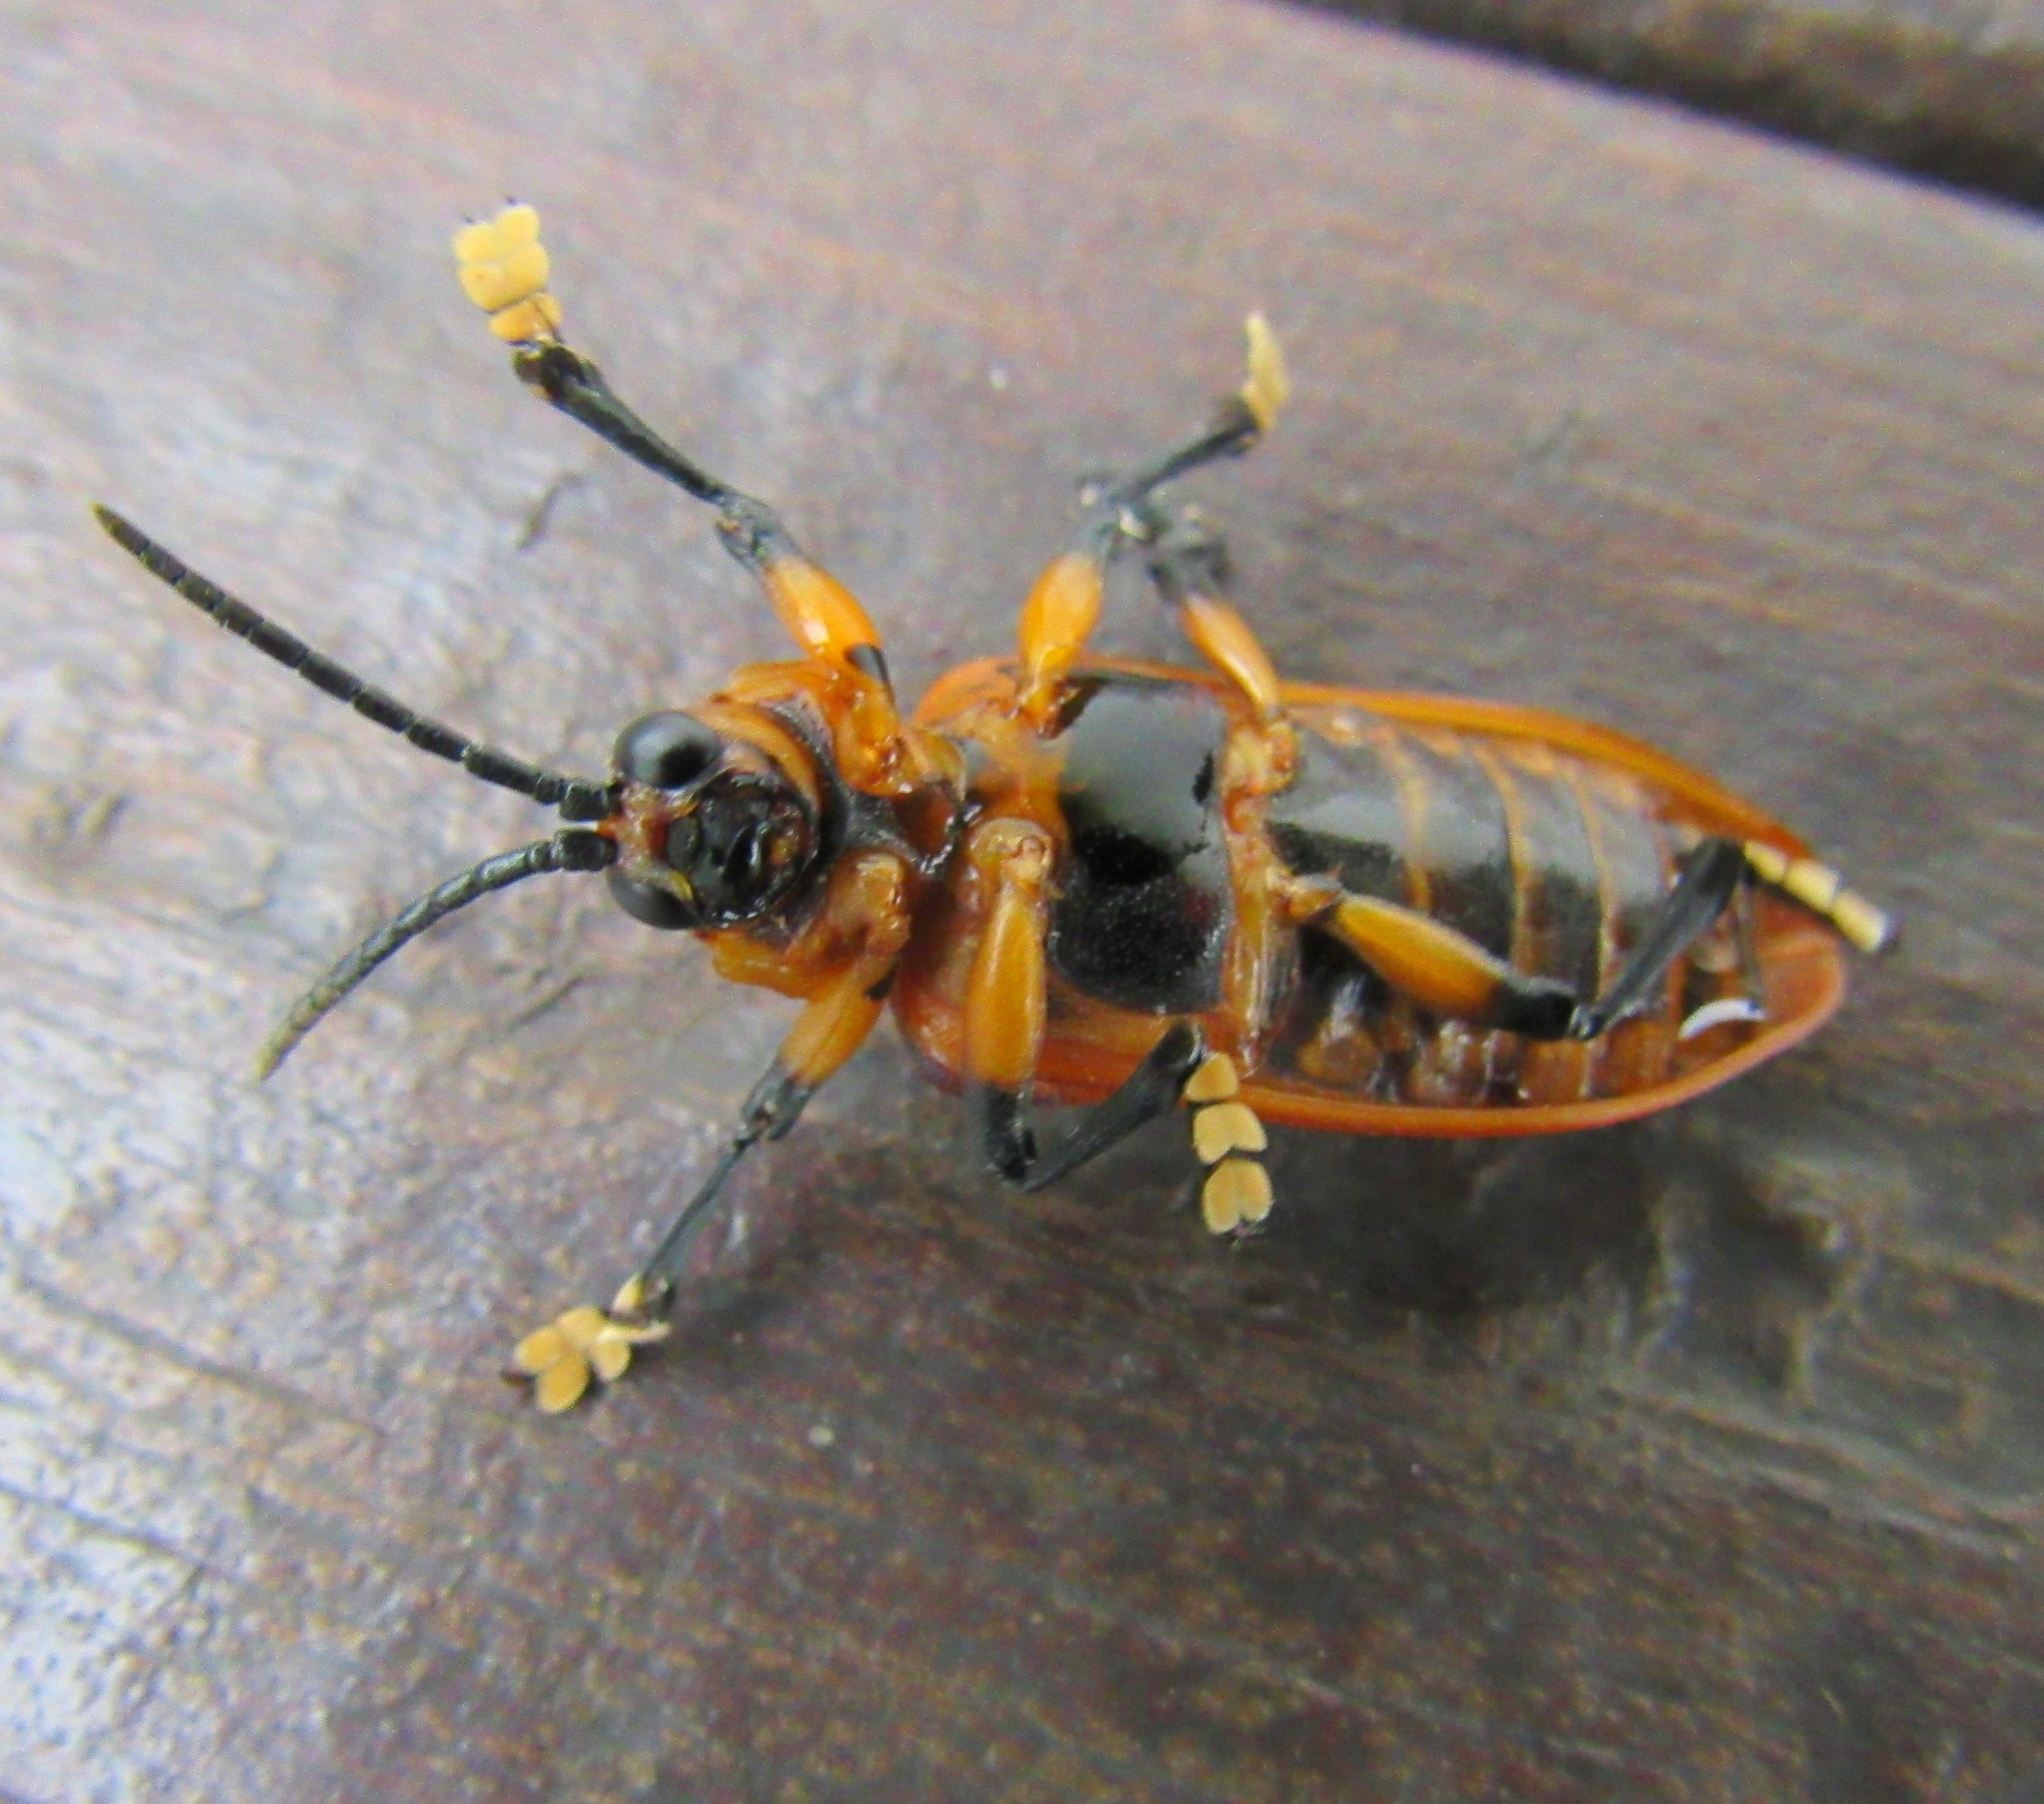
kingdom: Animalia
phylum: Arthropoda
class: Insecta
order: Coleoptera
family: Chrysomelidae
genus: Coraliomela
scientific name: Coraliomela brunnea
